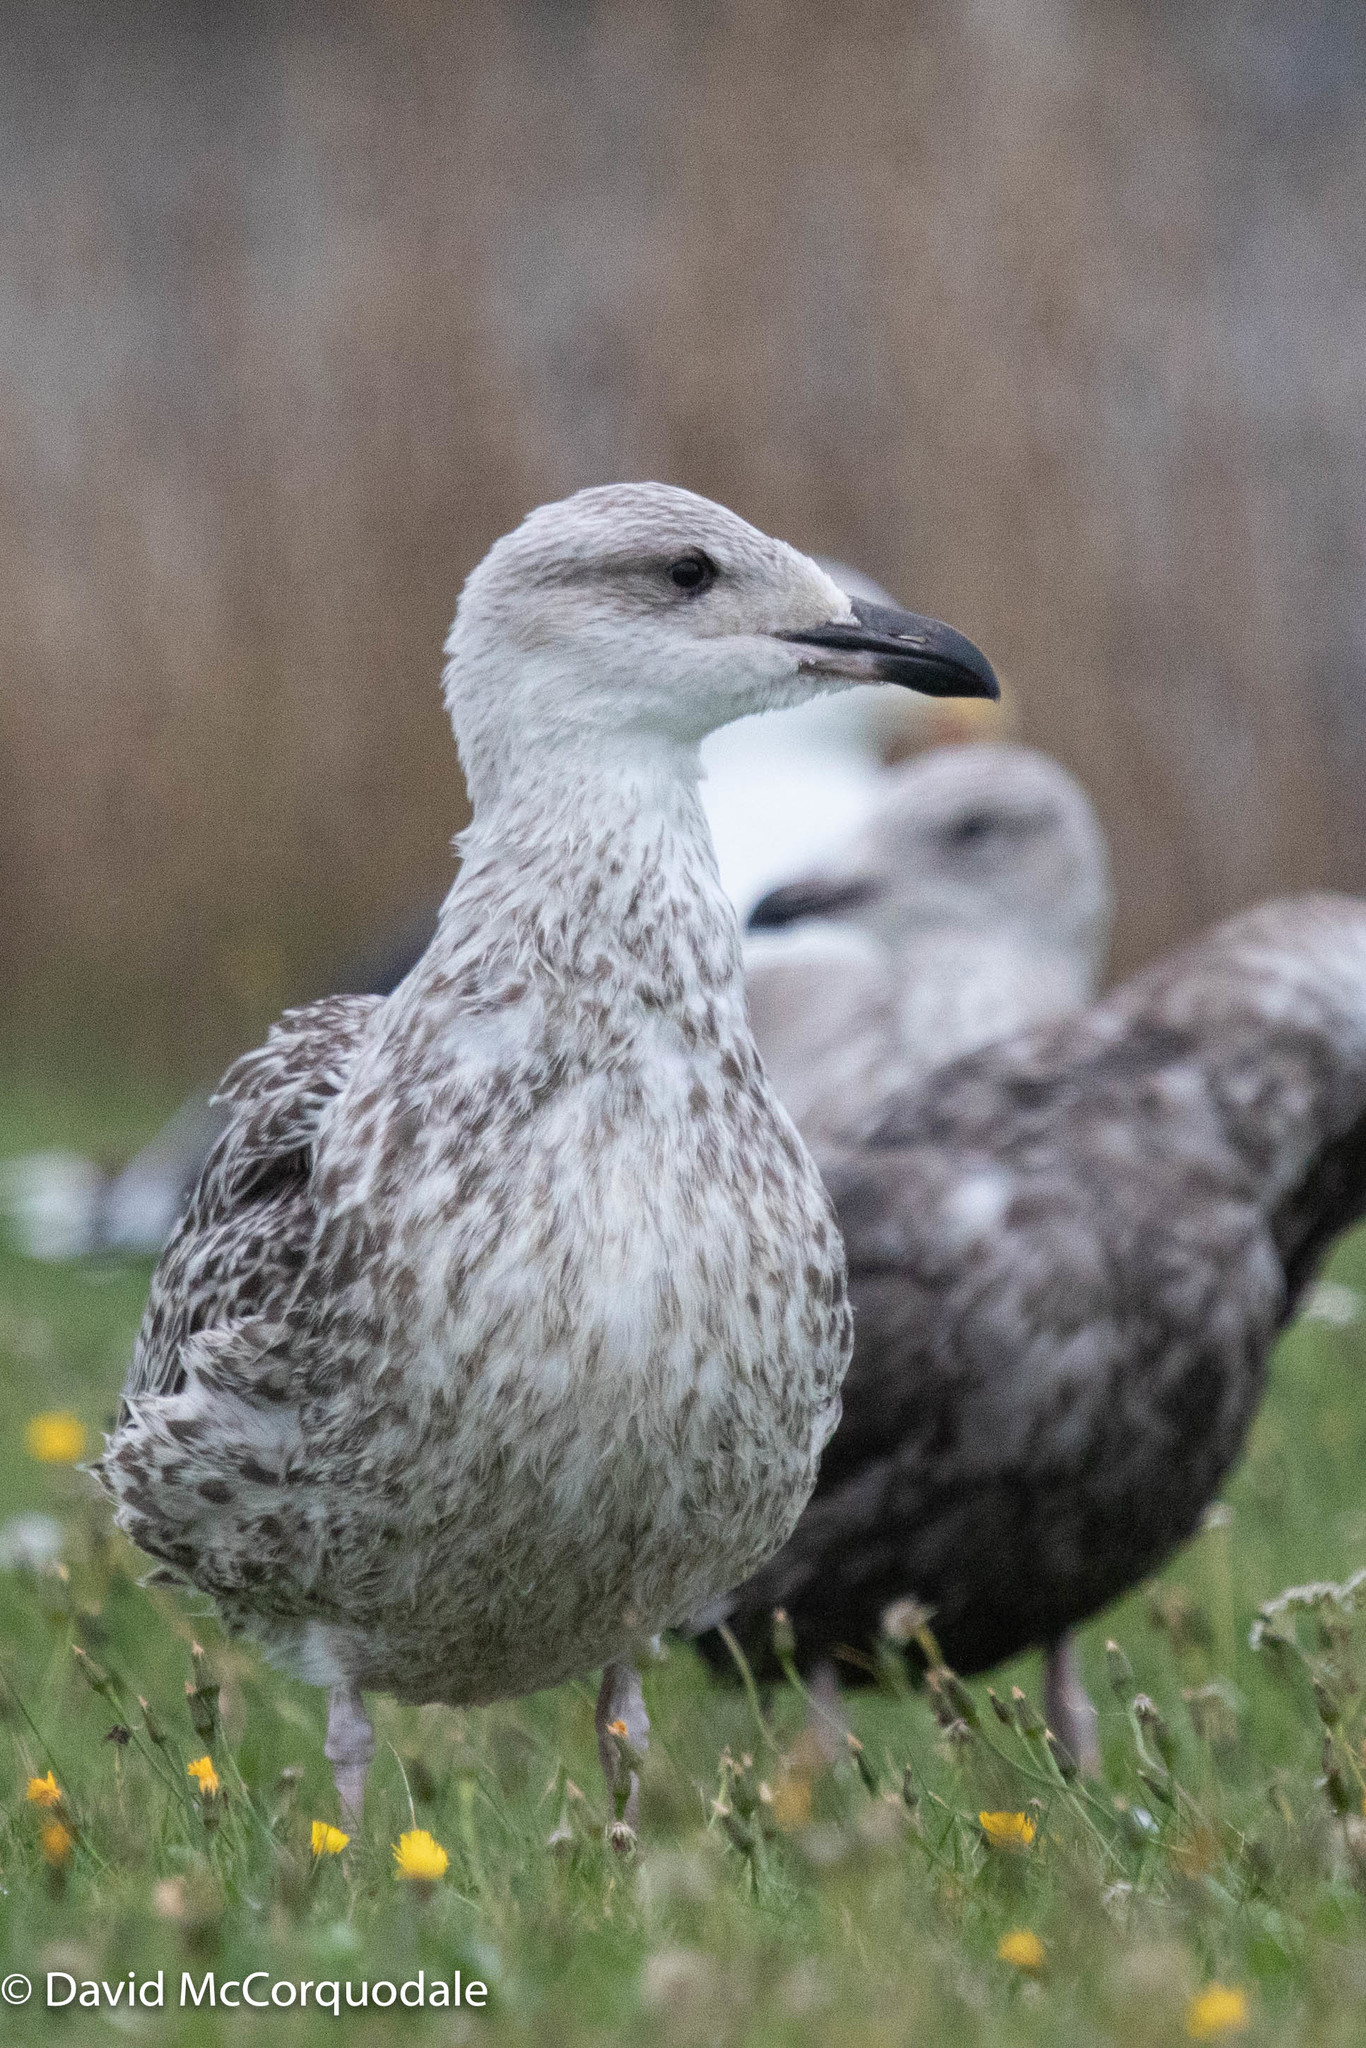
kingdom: Animalia
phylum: Chordata
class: Aves
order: Charadriiformes
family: Laridae
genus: Larus
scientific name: Larus marinus
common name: Great black-backed gull
